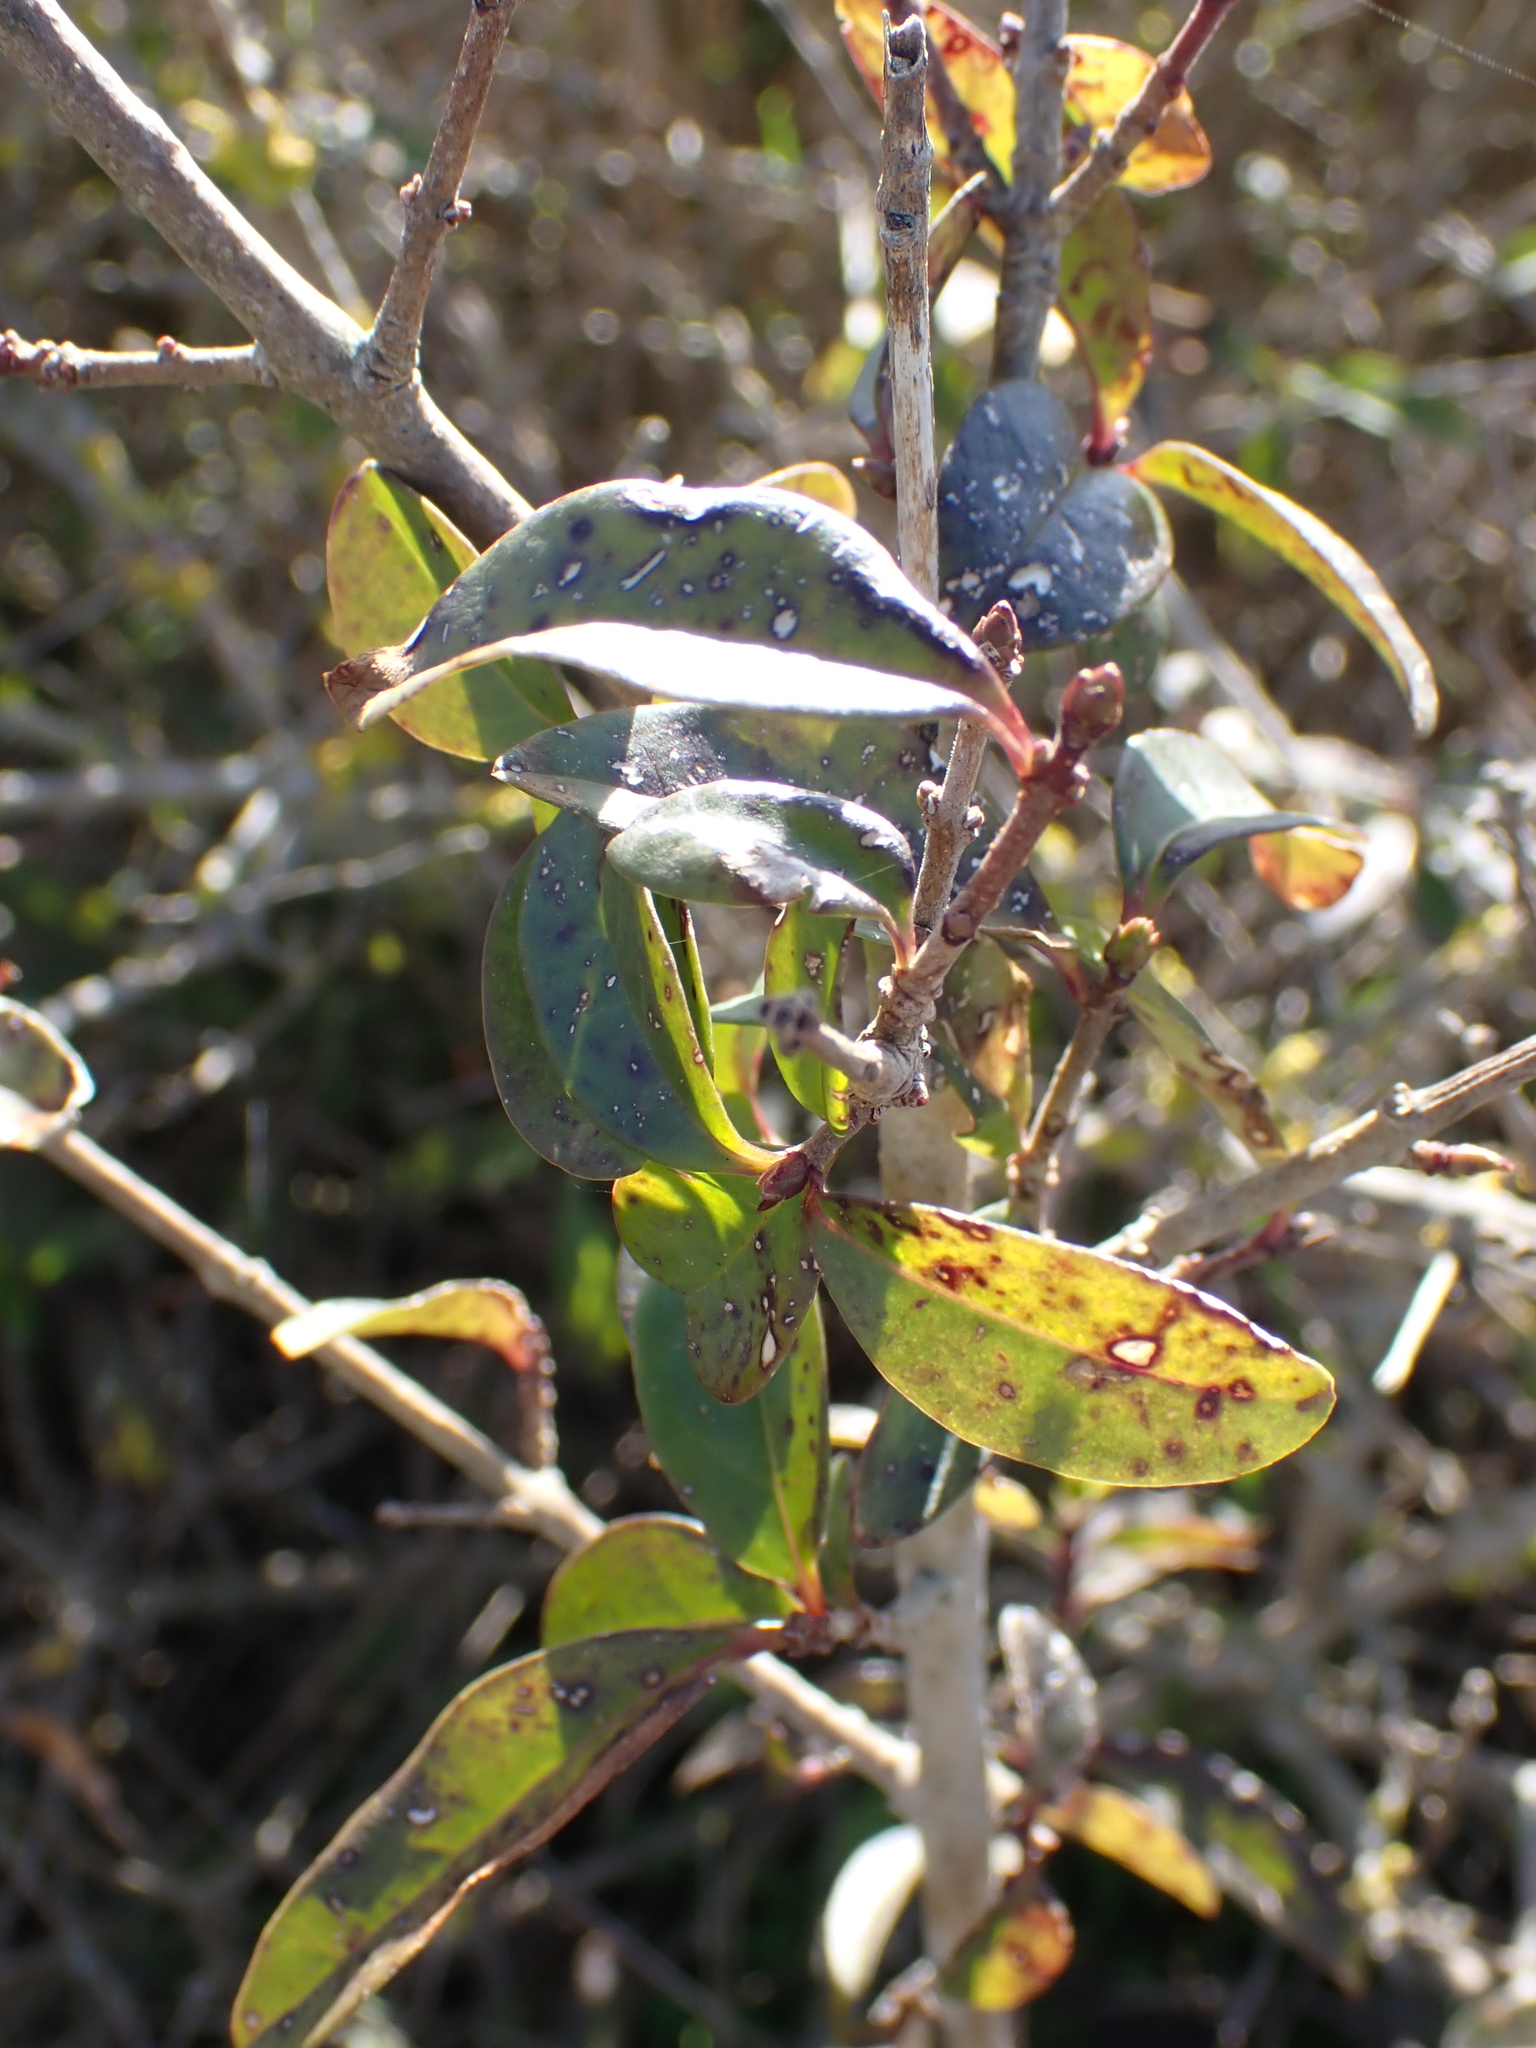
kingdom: Plantae
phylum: Tracheophyta
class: Magnoliopsida
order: Lamiales
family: Oleaceae
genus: Ligustrum
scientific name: Ligustrum vulgare
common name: Wild privet
